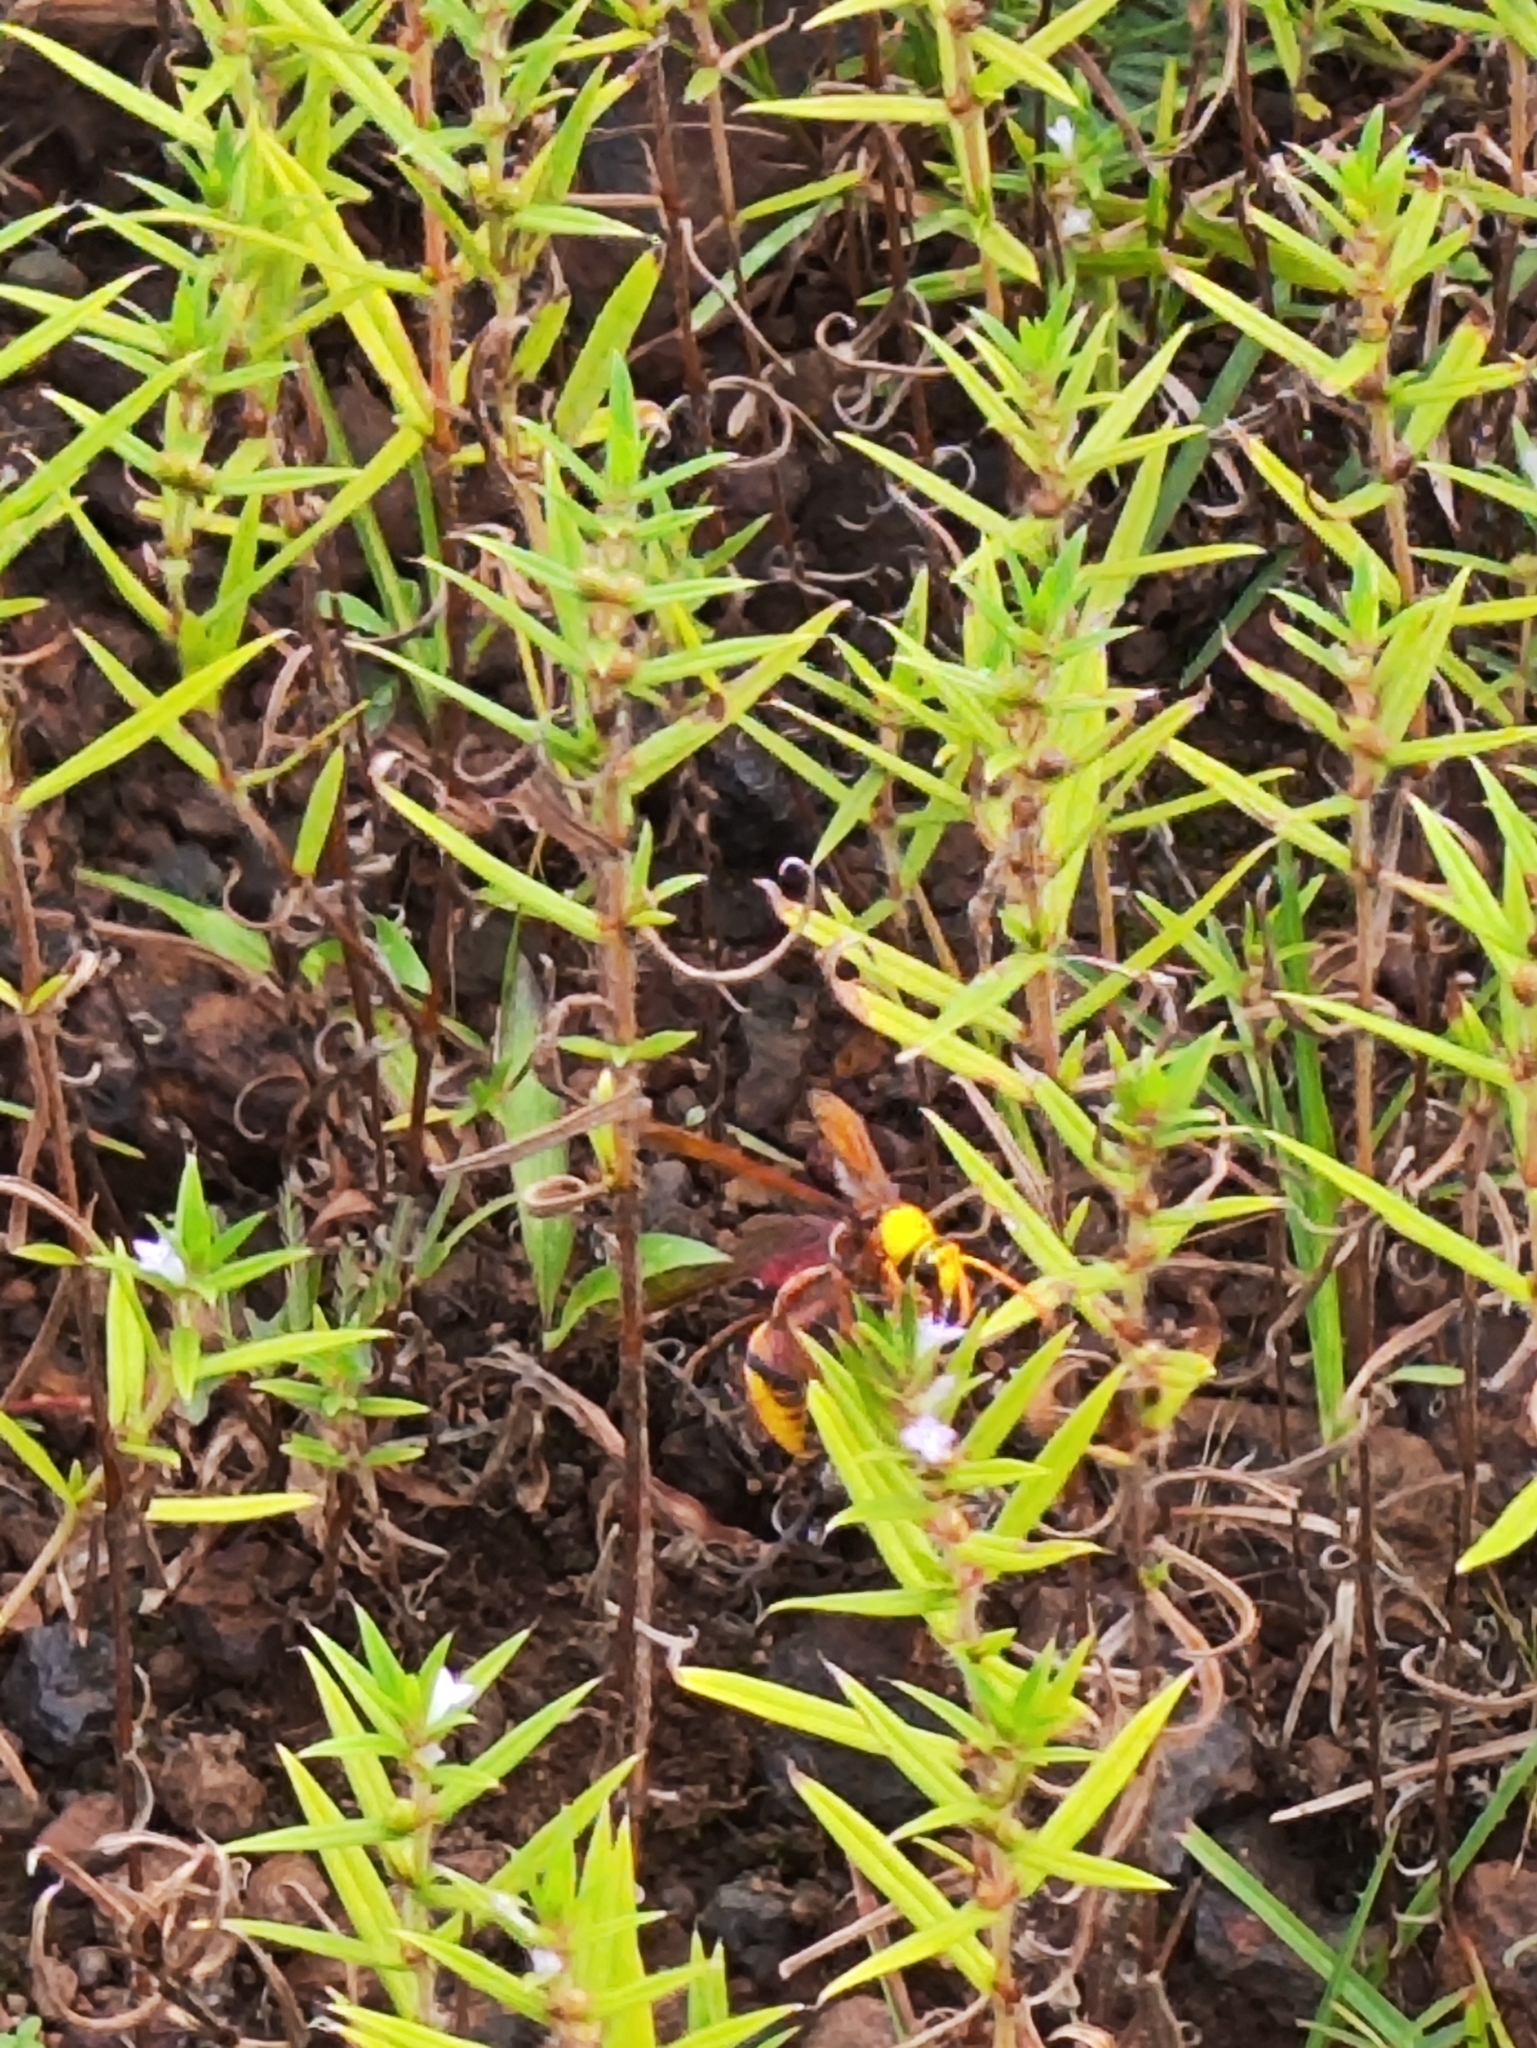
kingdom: Animalia
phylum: Arthropoda
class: Insecta
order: Hymenoptera
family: Eumenidae
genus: Delta
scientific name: Delta pyriforme
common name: Wasp
